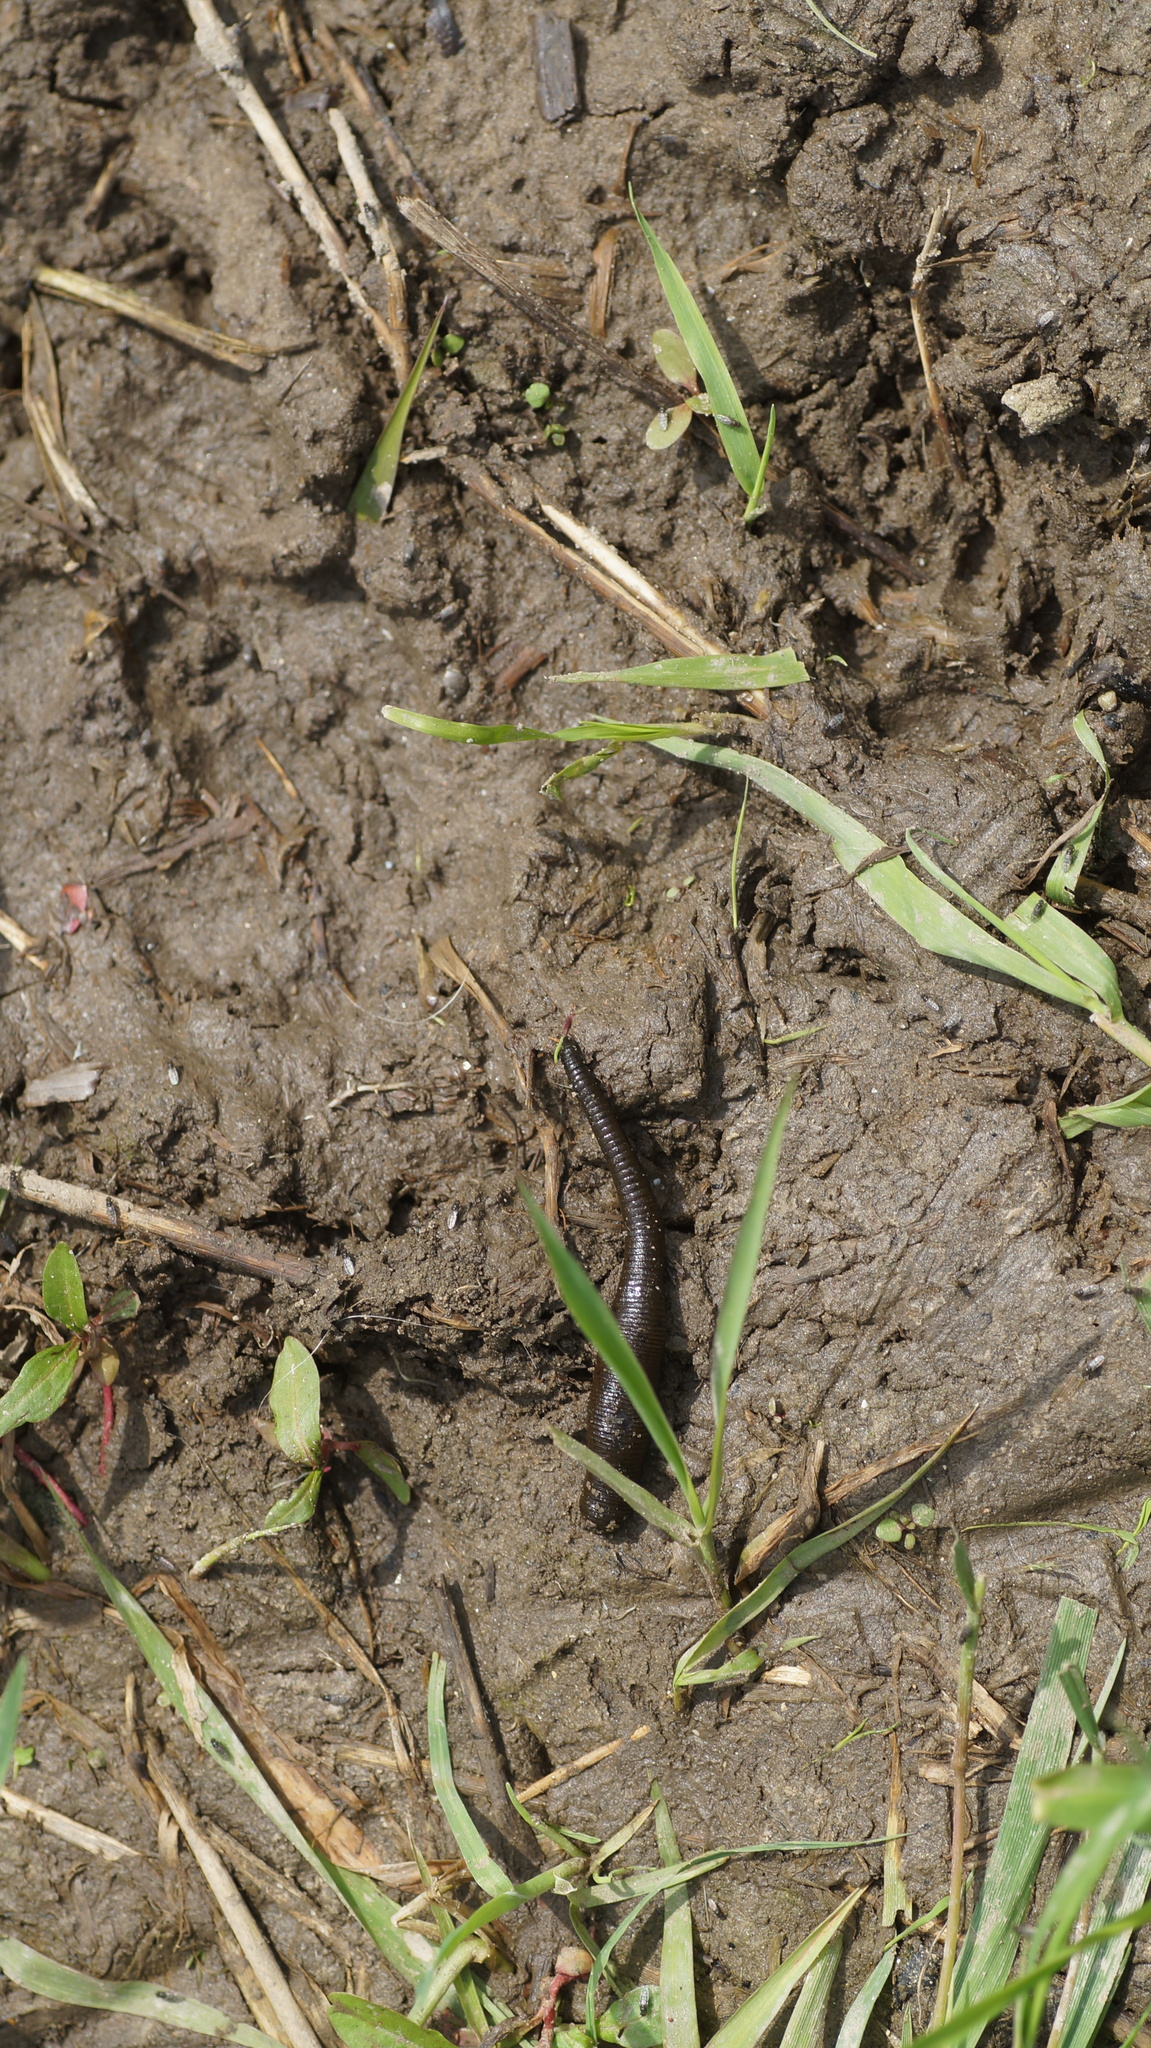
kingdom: Animalia
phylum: Annelida
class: Clitellata
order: Arhynchobdellida
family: Haemopidae
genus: Haemopis
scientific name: Haemopis sanguisuga
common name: Horse leech
